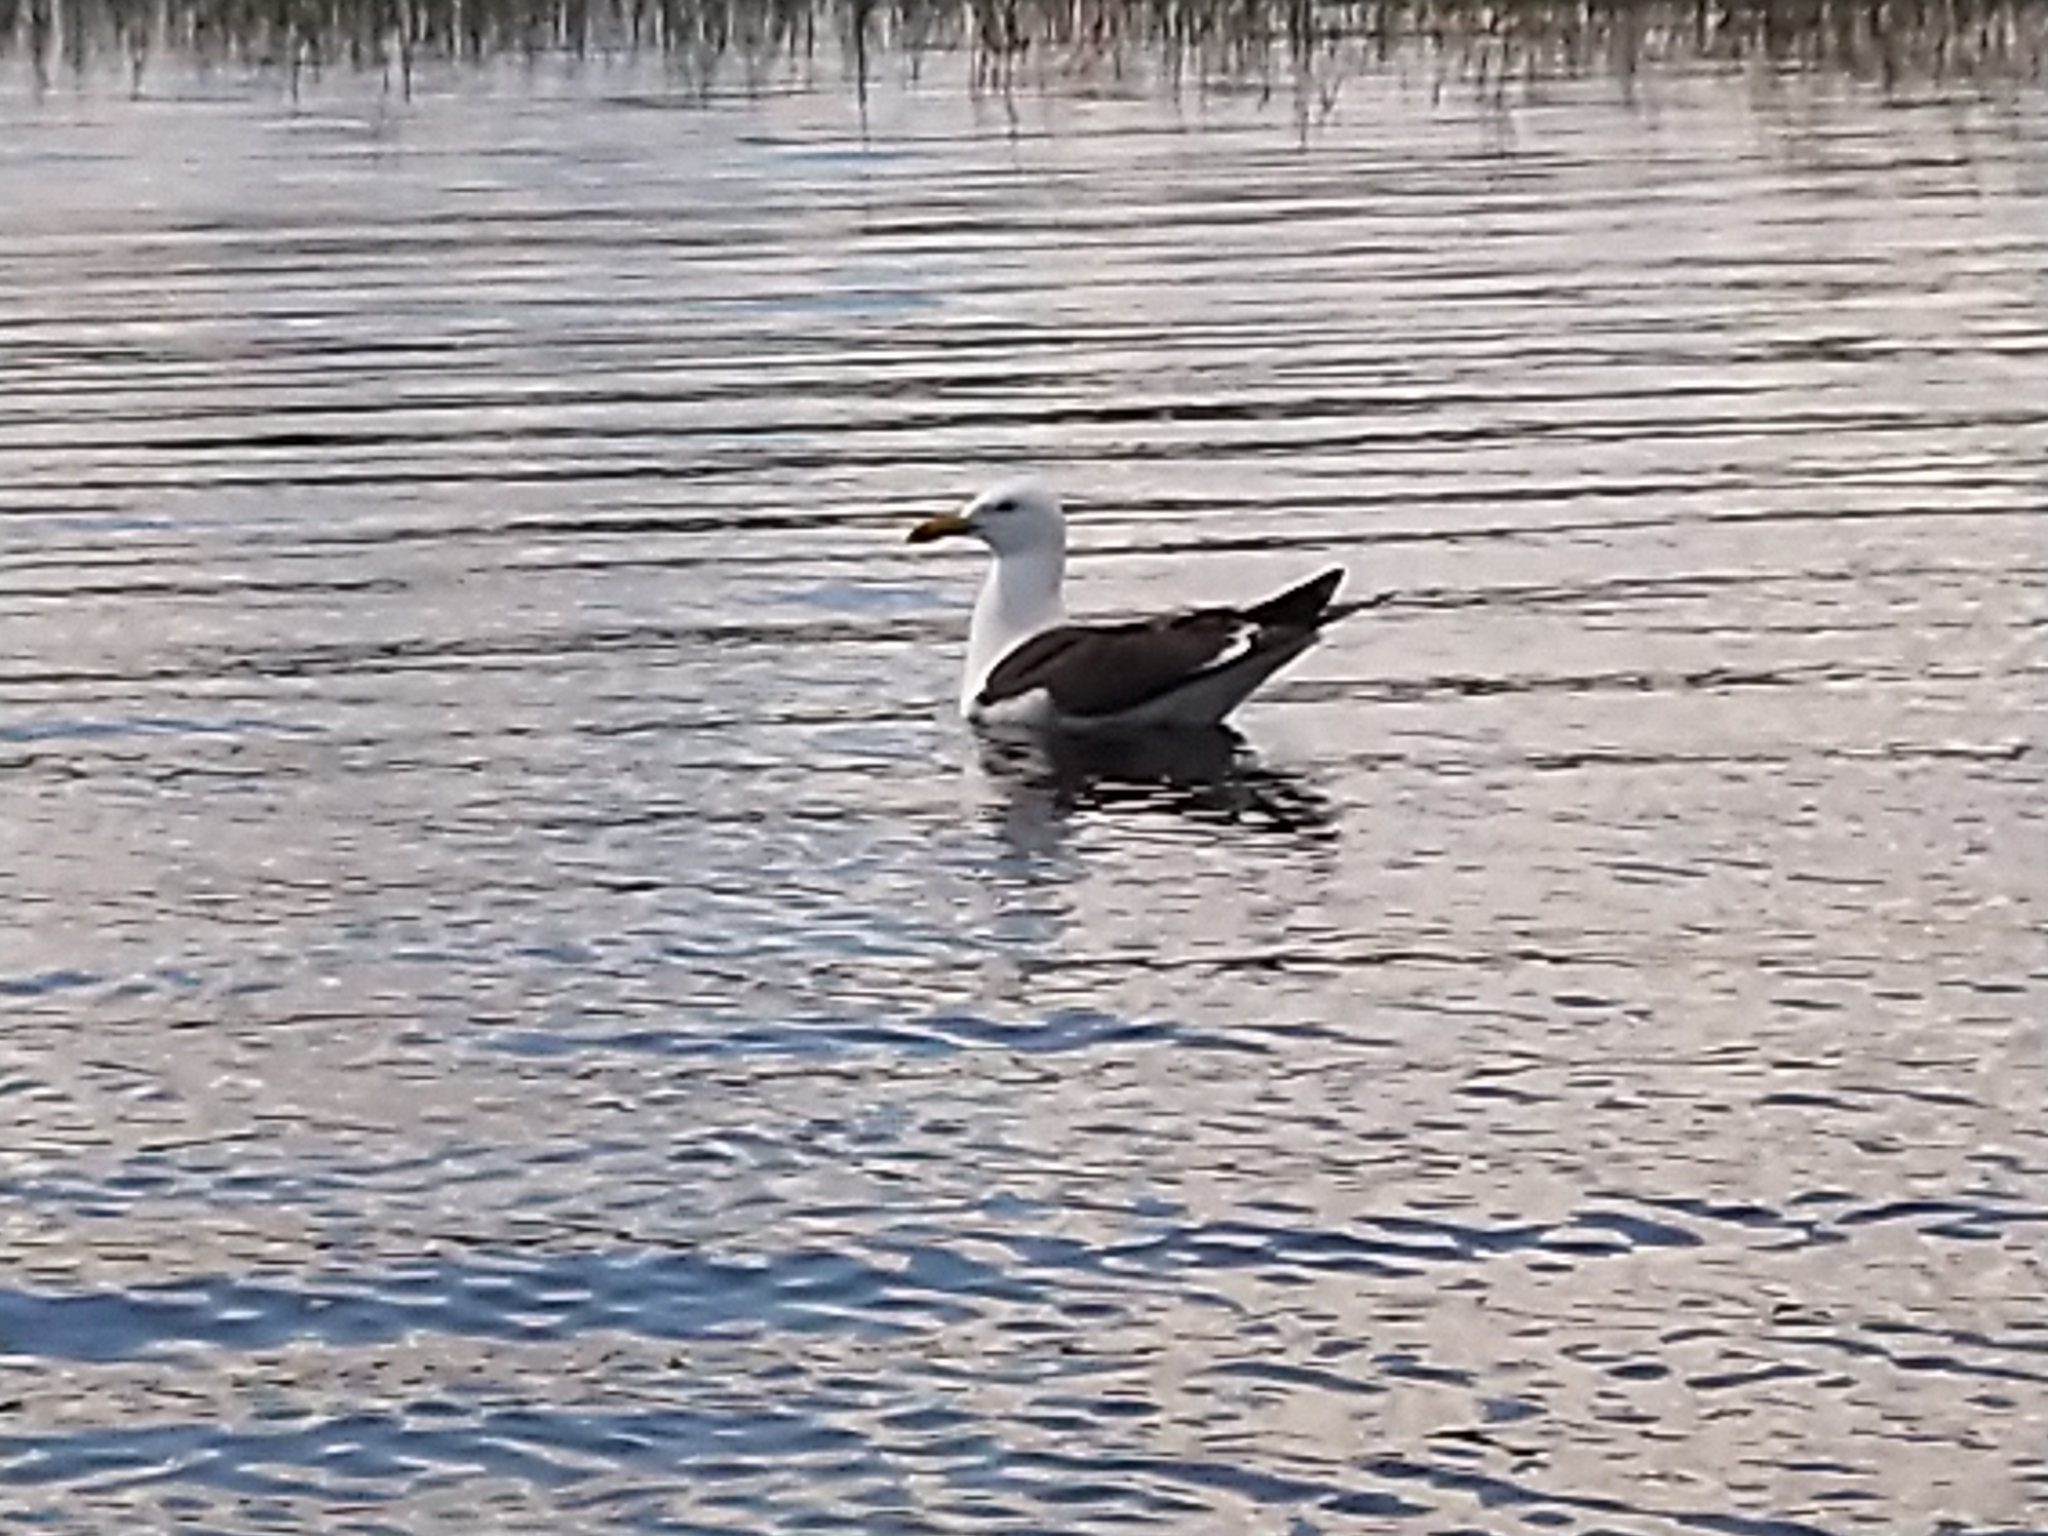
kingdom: Animalia
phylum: Chordata
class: Aves
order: Charadriiformes
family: Laridae
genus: Larus
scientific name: Larus fuscus
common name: Lesser black-backed gull
